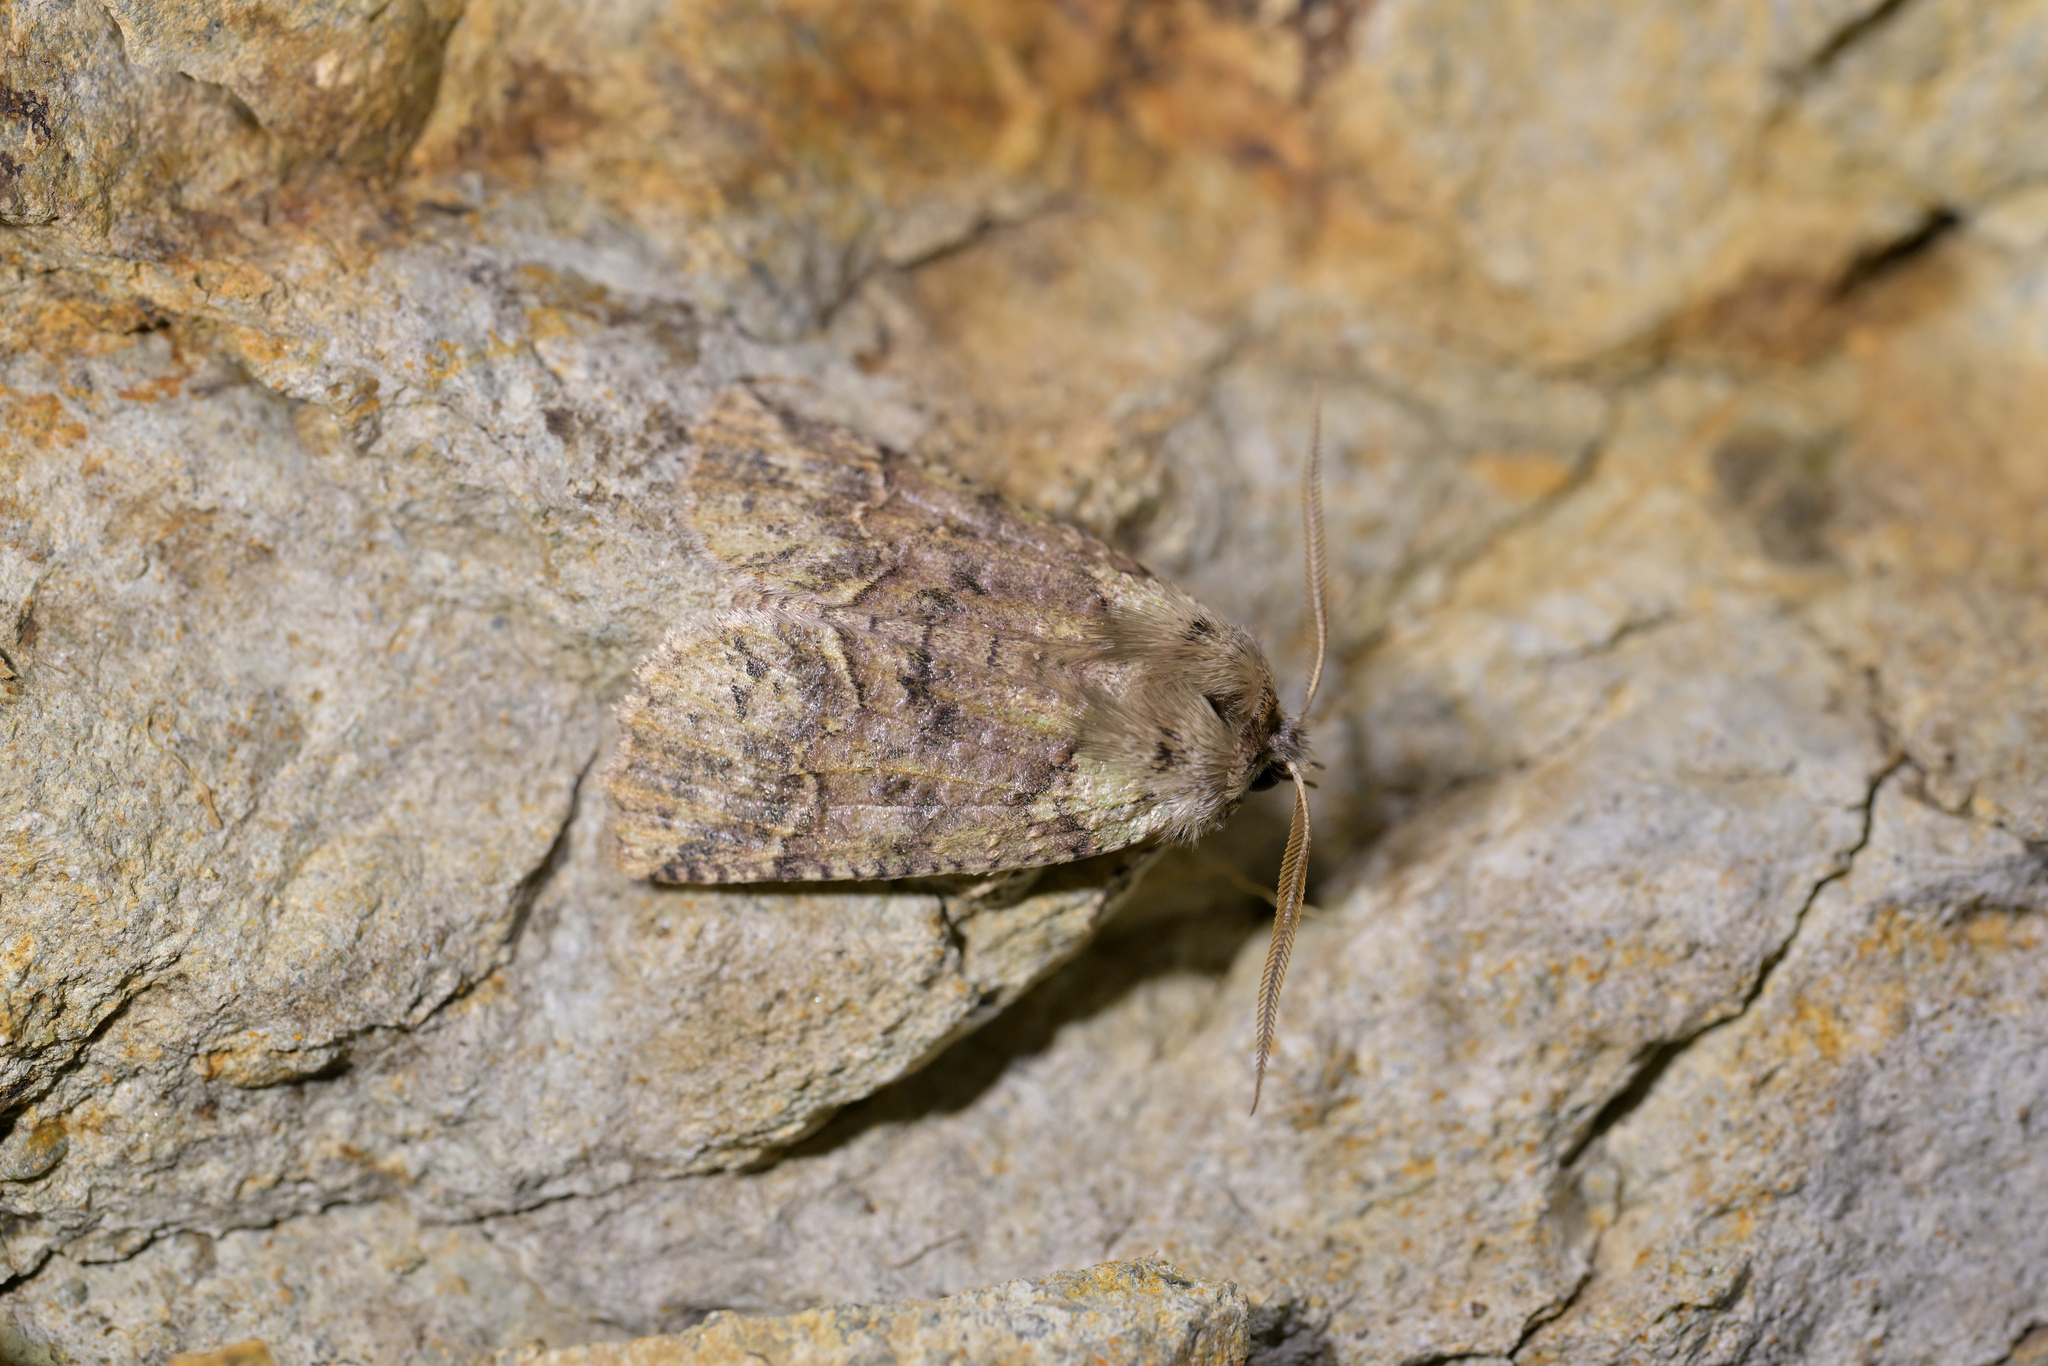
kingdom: Animalia
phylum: Arthropoda
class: Insecta
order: Lepidoptera
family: Geometridae
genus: Declana
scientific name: Declana floccosa
